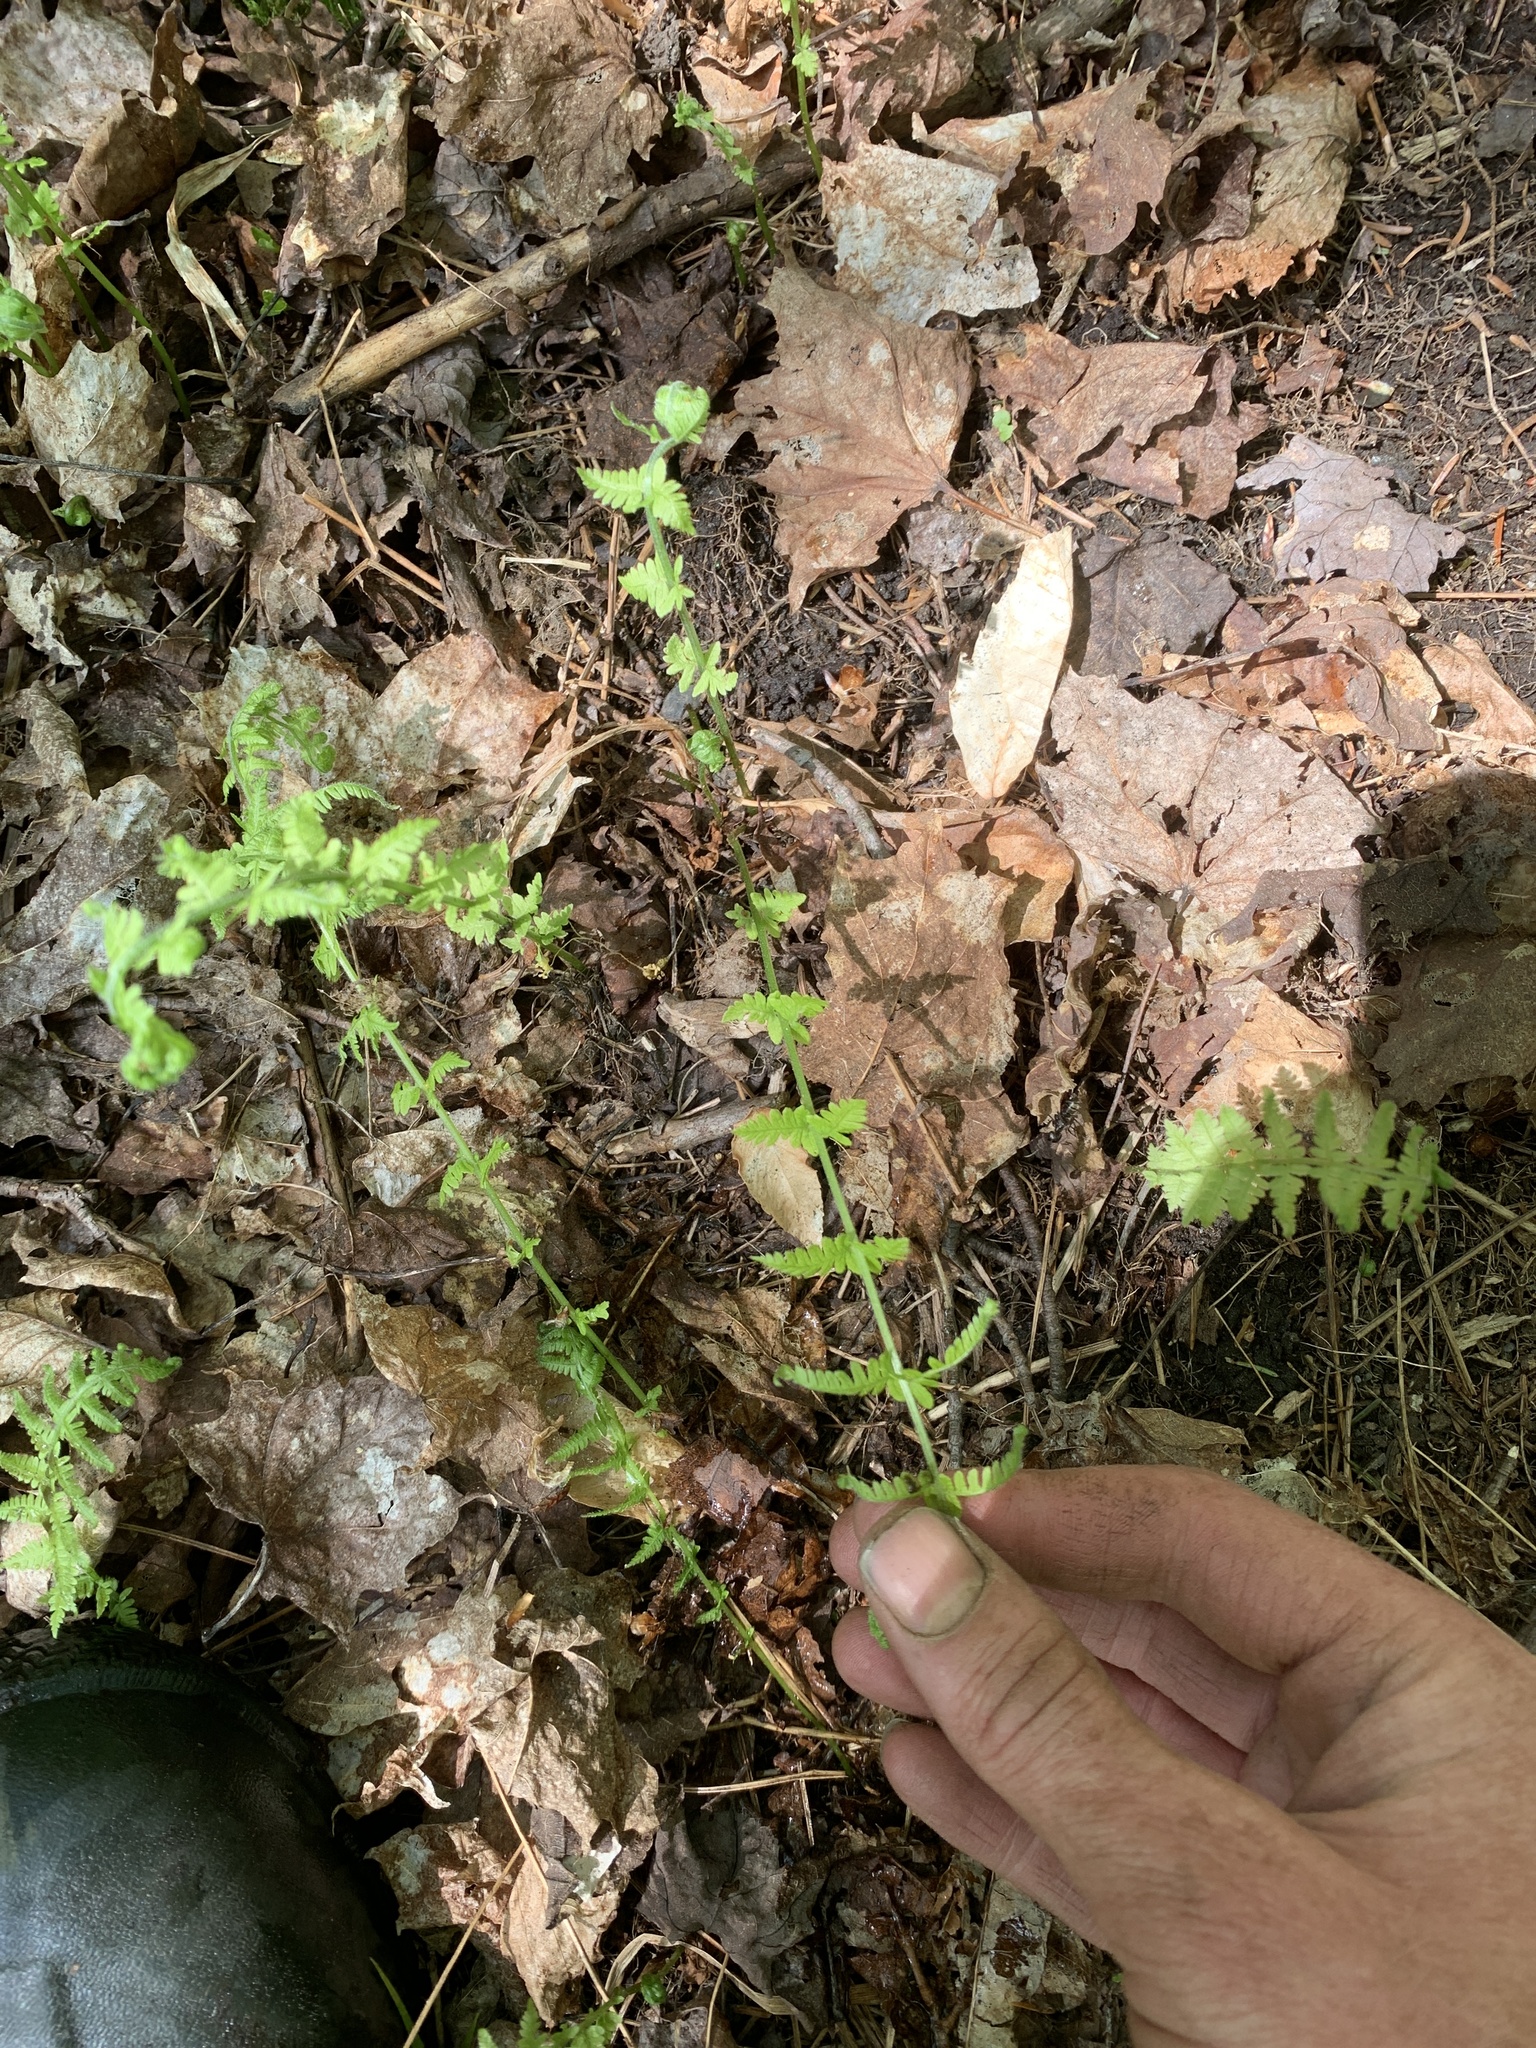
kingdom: Plantae
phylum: Tracheophyta
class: Polypodiopsida
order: Polypodiales
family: Thelypteridaceae
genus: Amauropelta
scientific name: Amauropelta noveboracensis
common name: New york fern
